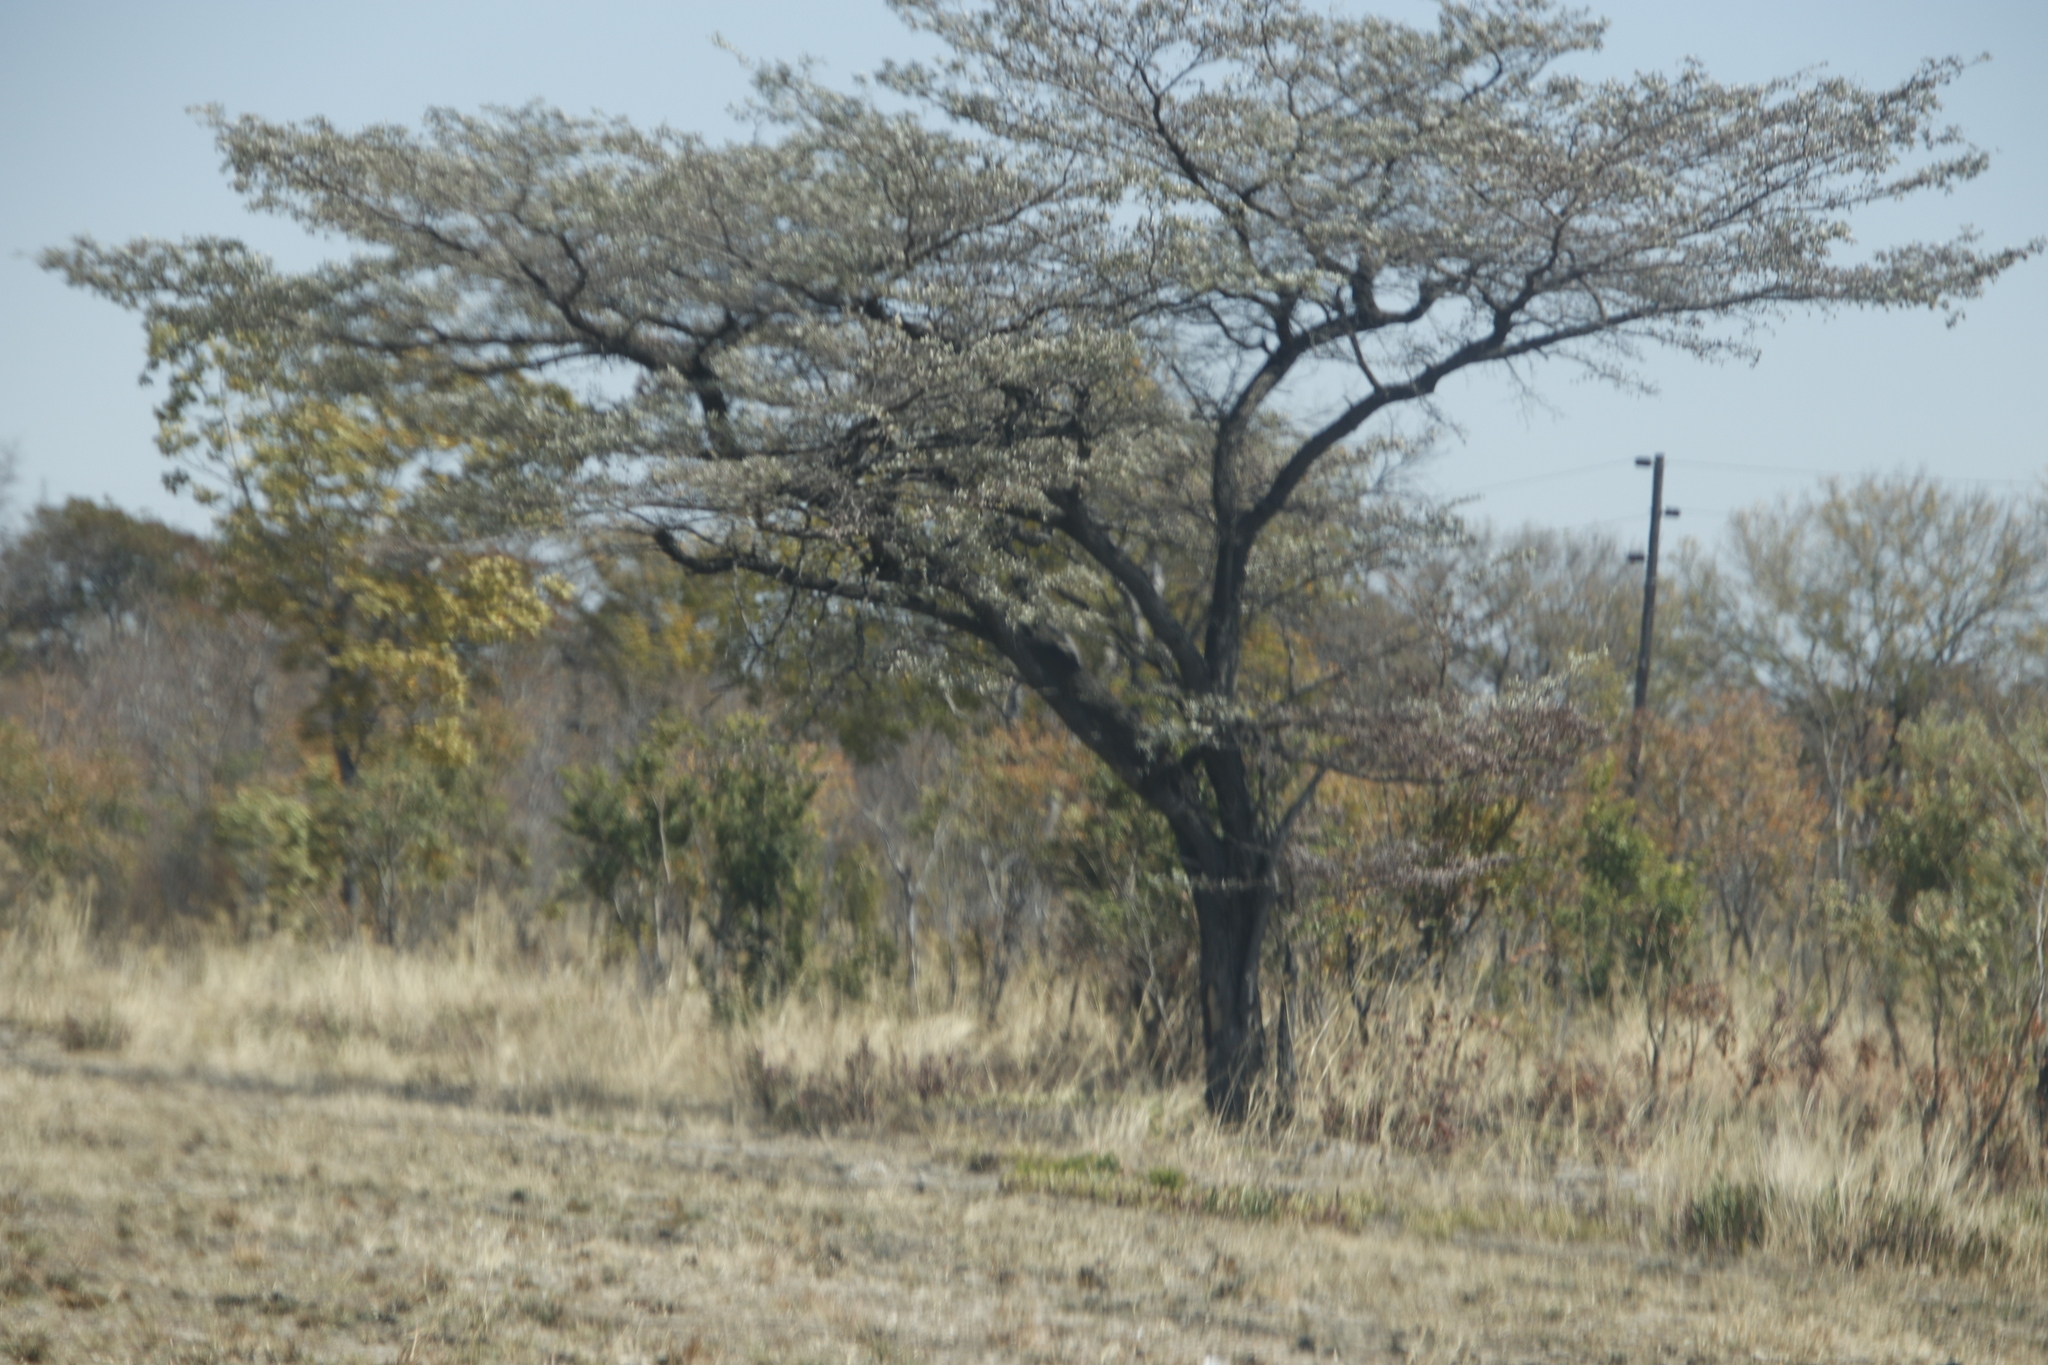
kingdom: Plantae
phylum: Tracheophyta
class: Magnoliopsida
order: Myrtales
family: Combretaceae
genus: Terminalia
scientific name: Terminalia sericea
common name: Clusterleaf
